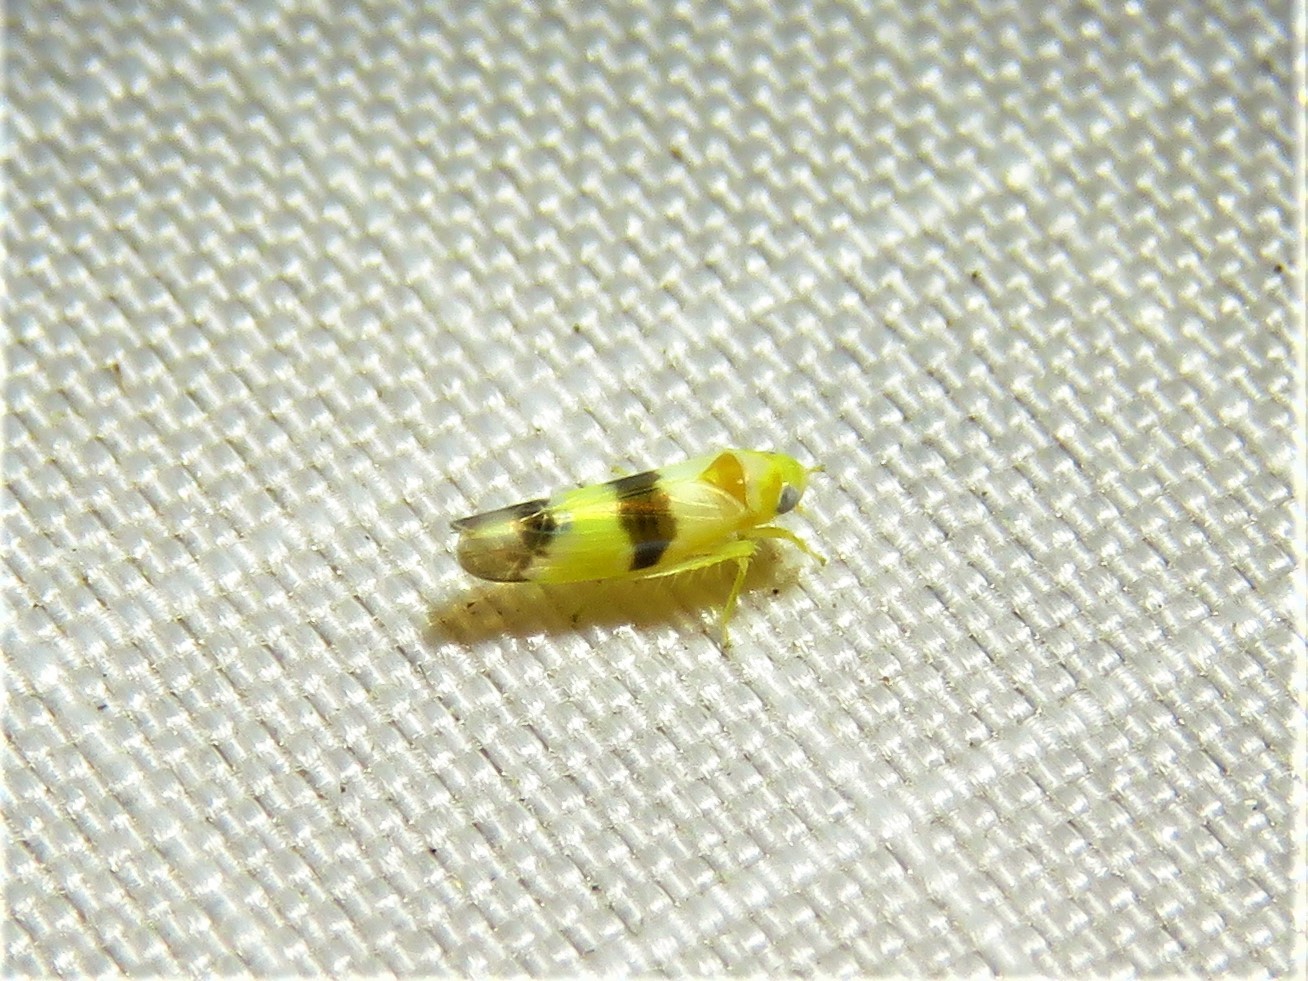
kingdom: Animalia
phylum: Arthropoda
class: Insecta
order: Hemiptera
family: Cicadellidae
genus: Empoa
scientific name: Empoa venusta
